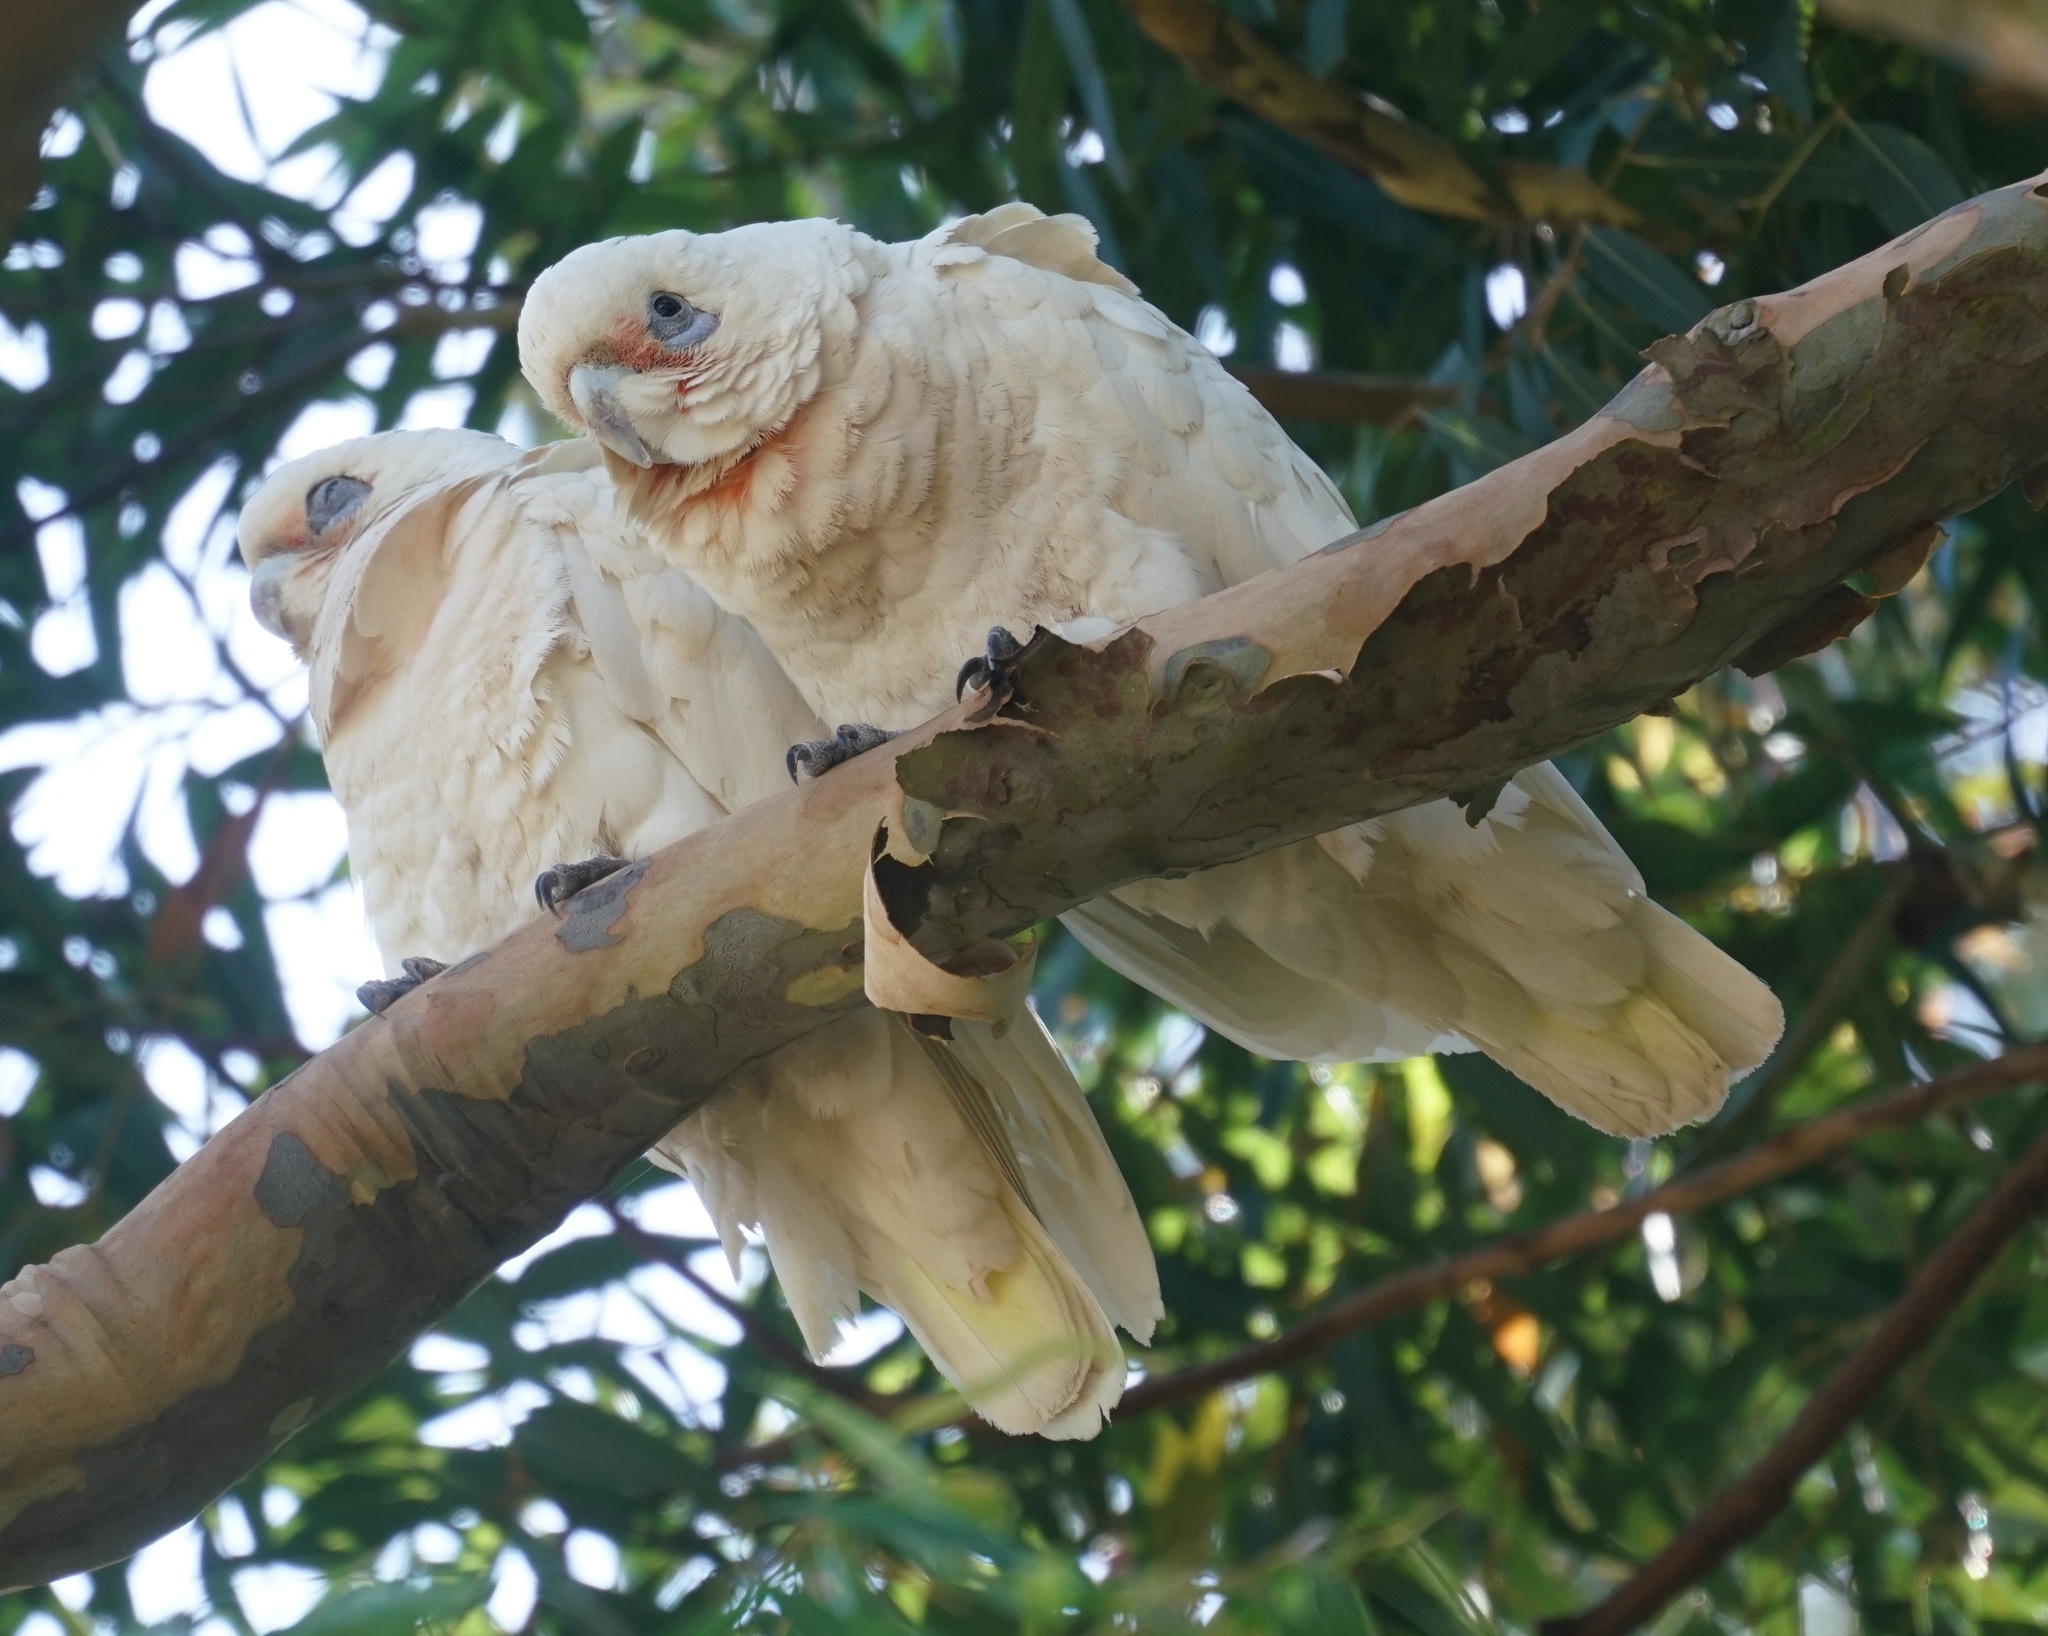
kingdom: Animalia
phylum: Chordata
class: Aves
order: Psittaciformes
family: Psittacidae
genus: Cacatua
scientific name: Cacatua sanguinea
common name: Little corella
